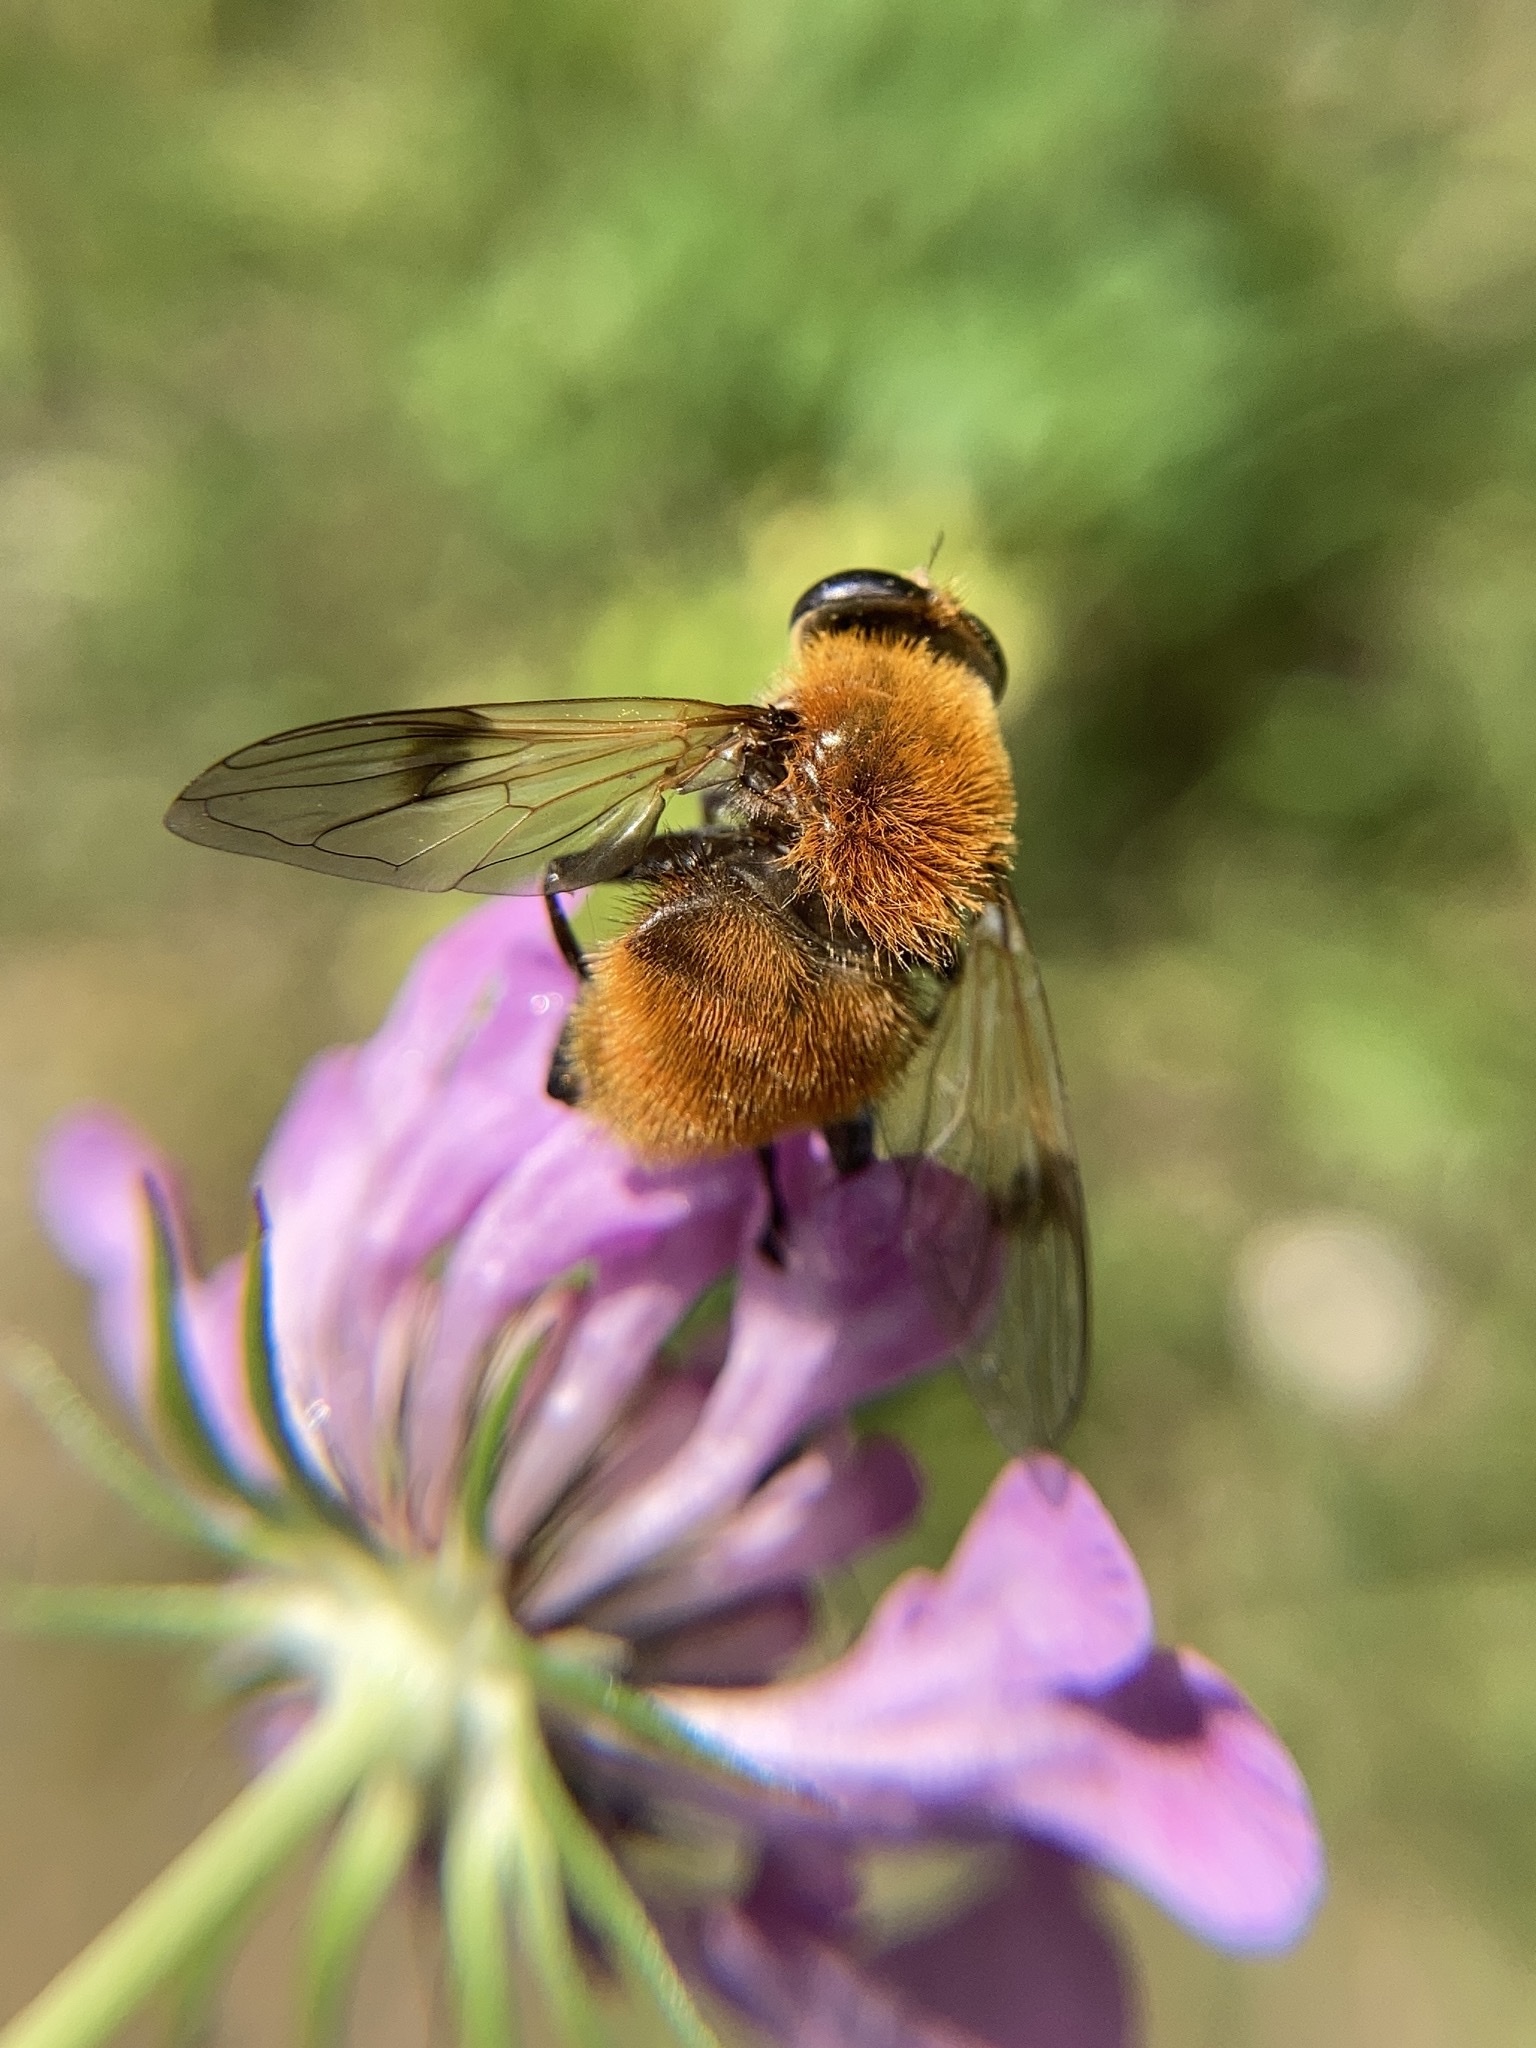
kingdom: Animalia
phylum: Arthropoda
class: Insecta
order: Diptera
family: Syrphidae
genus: Sericomyia
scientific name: Sericomyia superbiens
